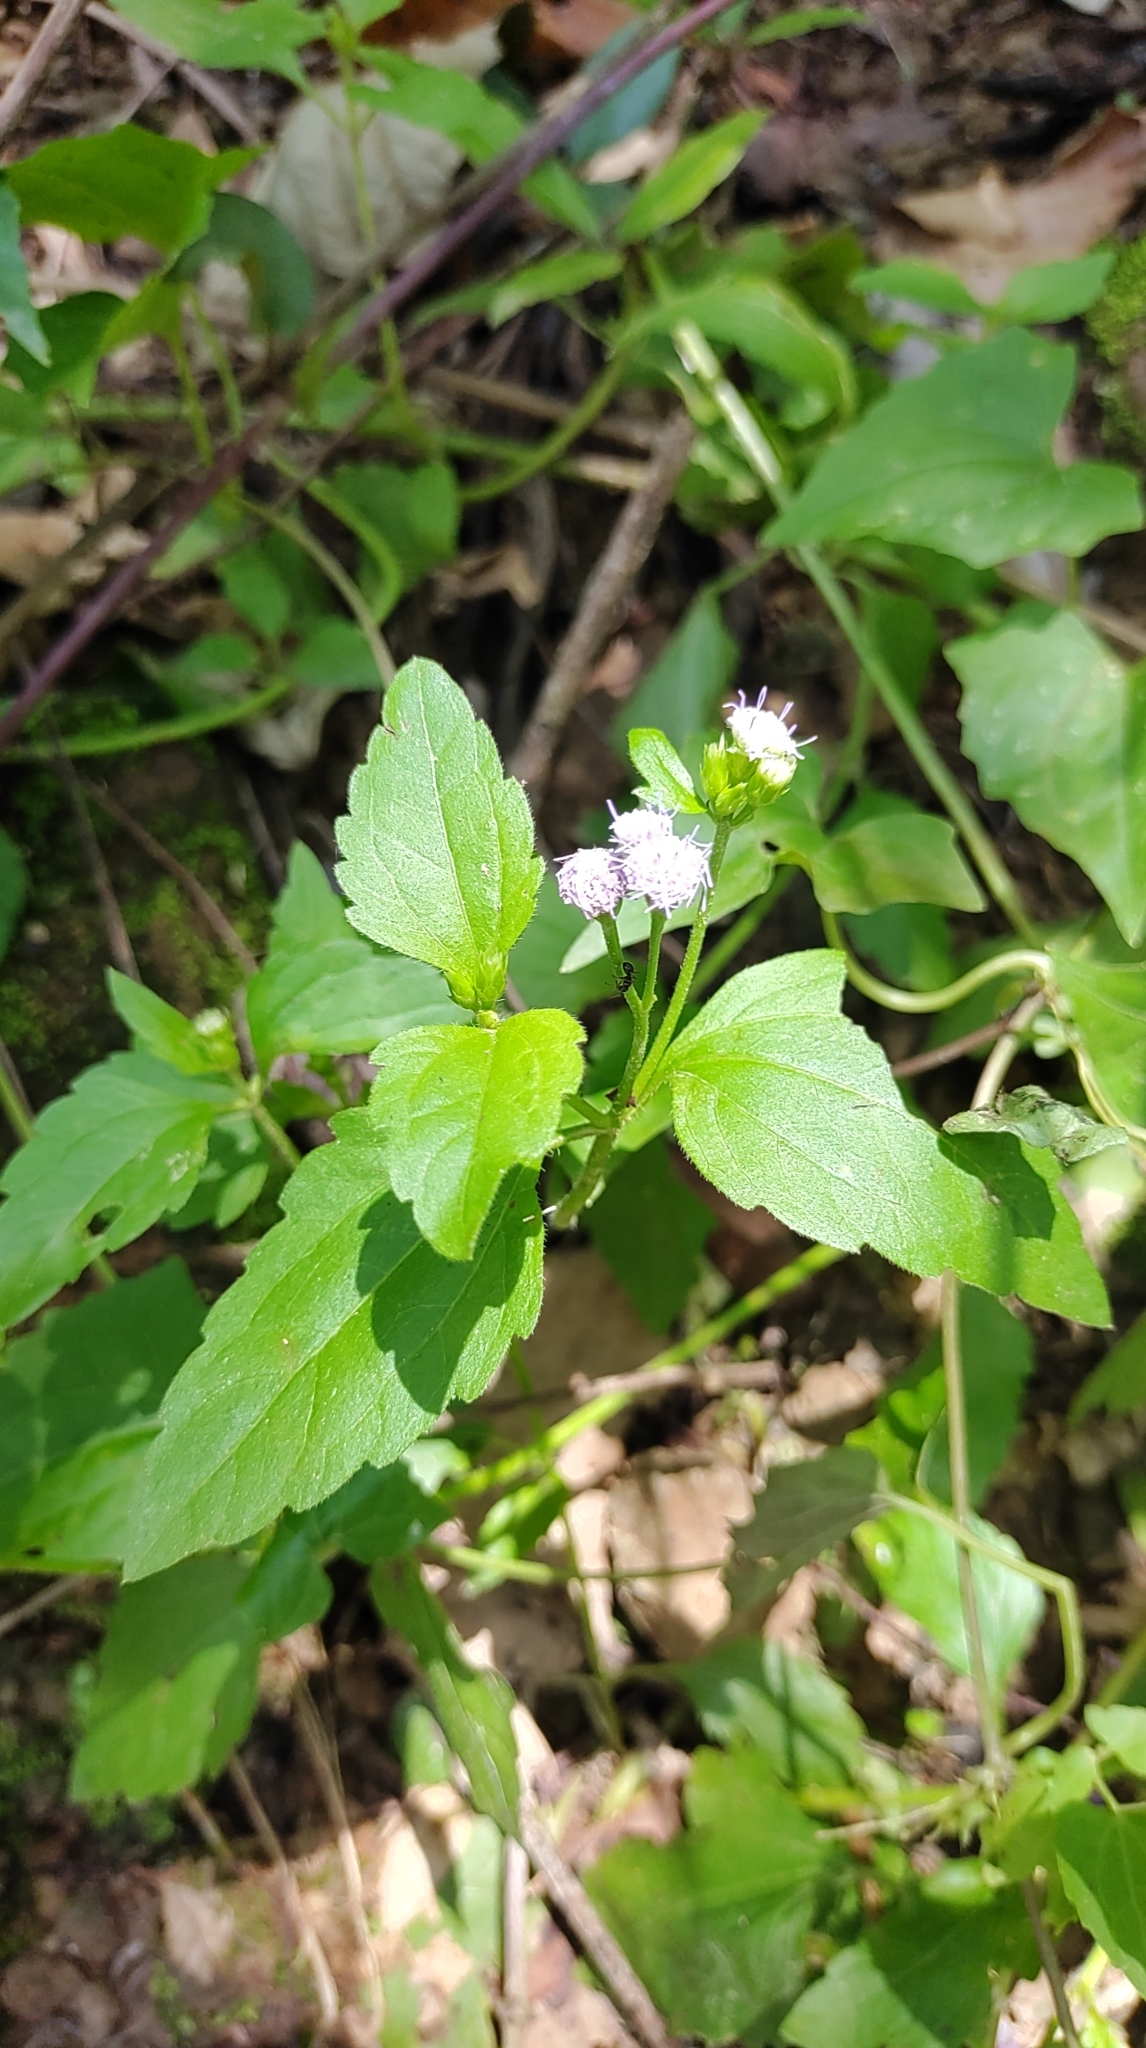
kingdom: Plantae
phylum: Tracheophyta
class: Magnoliopsida
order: Asterales
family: Asteraceae
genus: Praxelis
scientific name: Praxelis clematidea
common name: Praxelis
